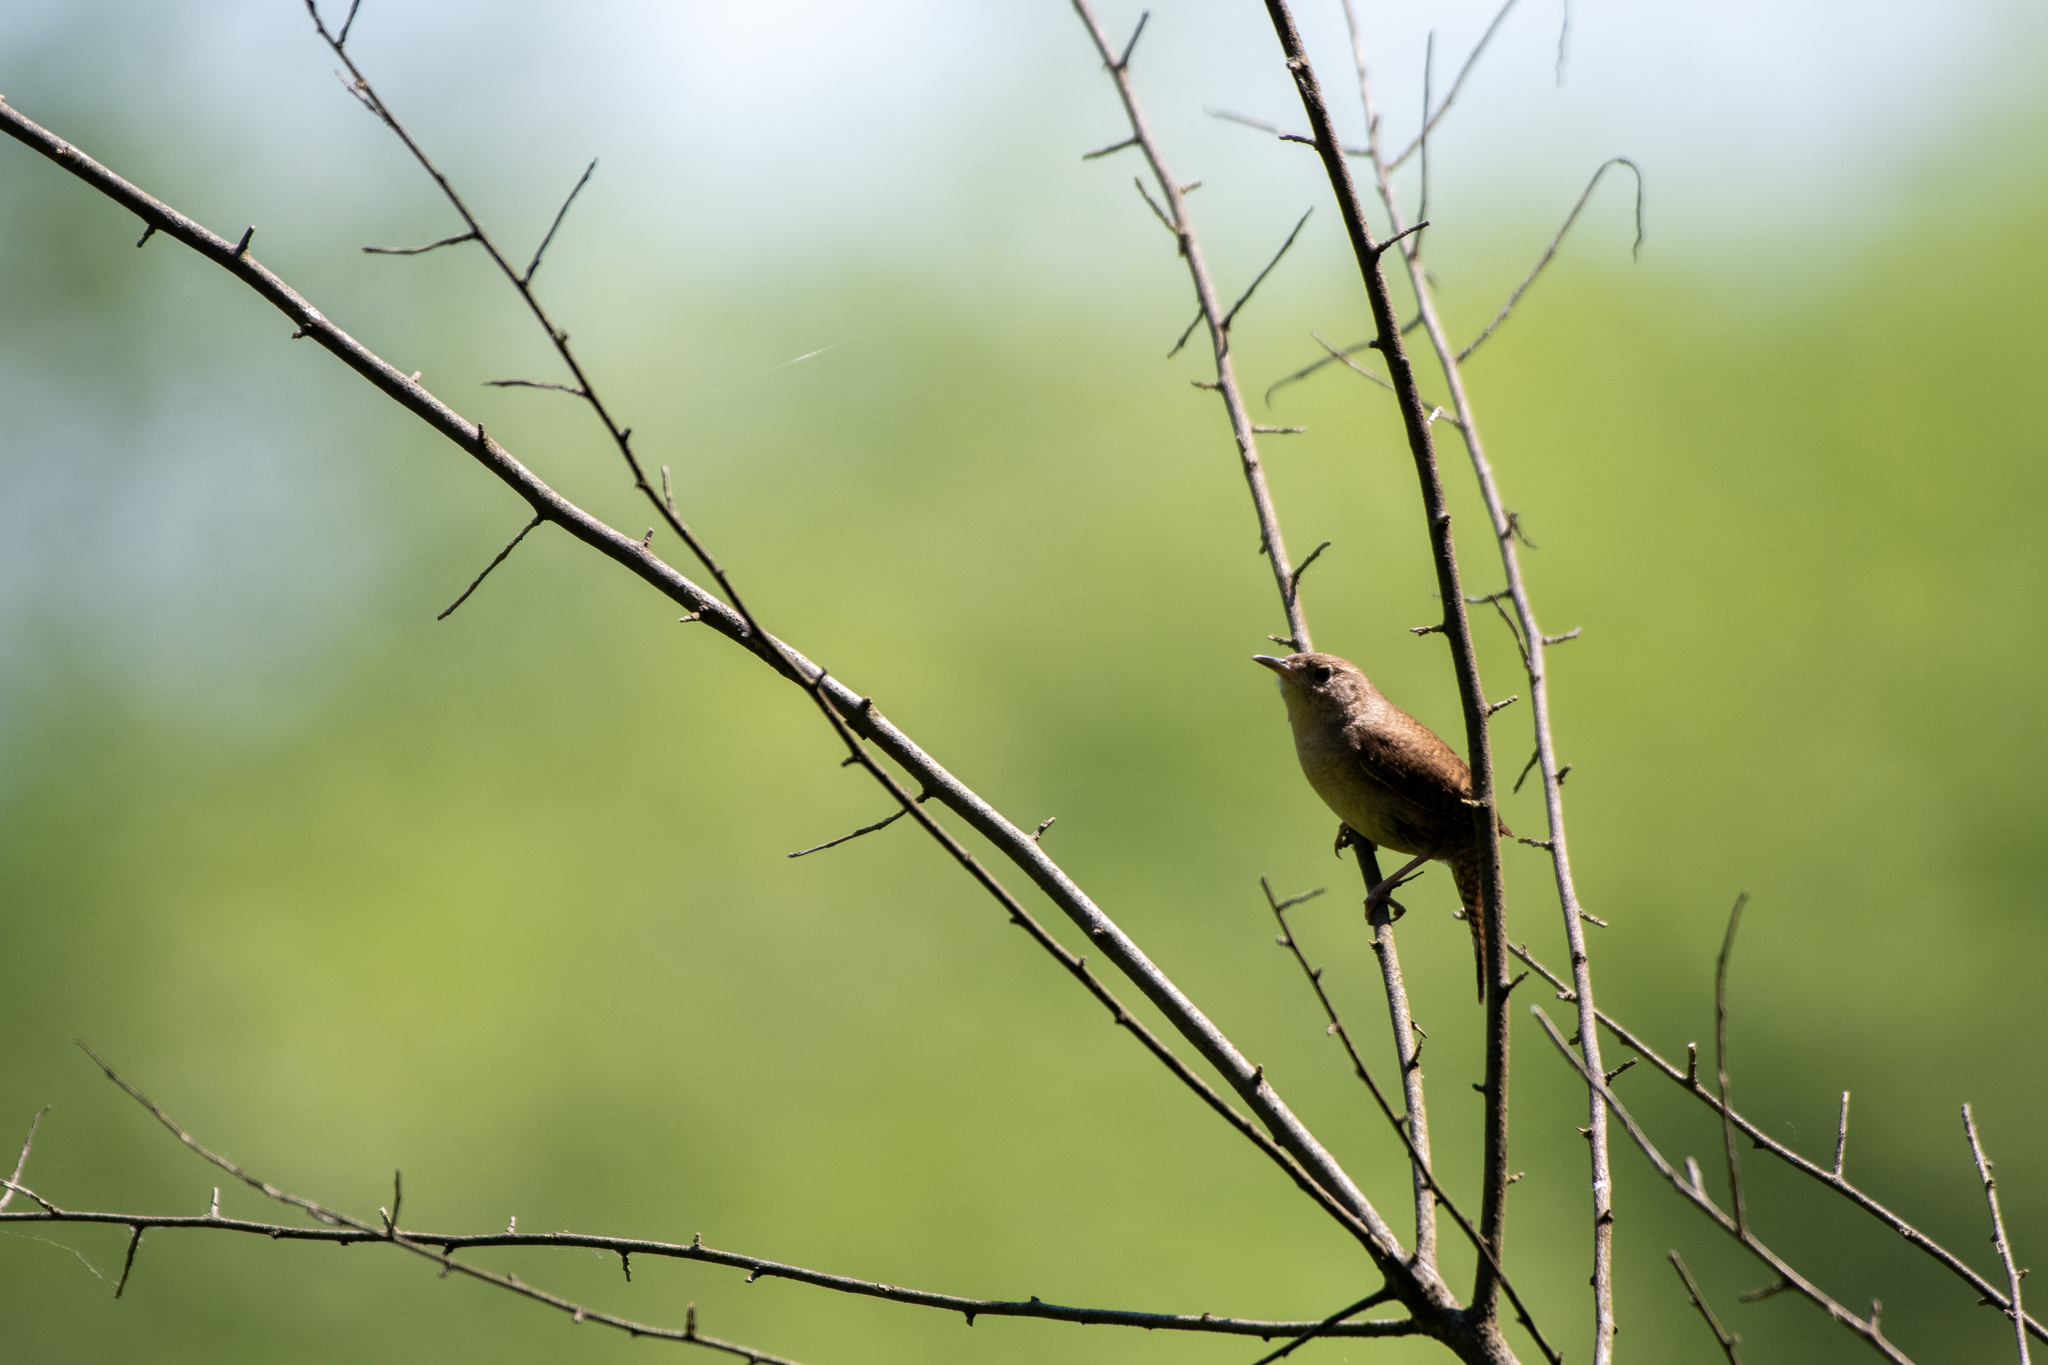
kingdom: Animalia
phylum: Chordata
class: Aves
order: Passeriformes
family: Troglodytidae
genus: Troglodytes
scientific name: Troglodytes aedon
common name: House wren
